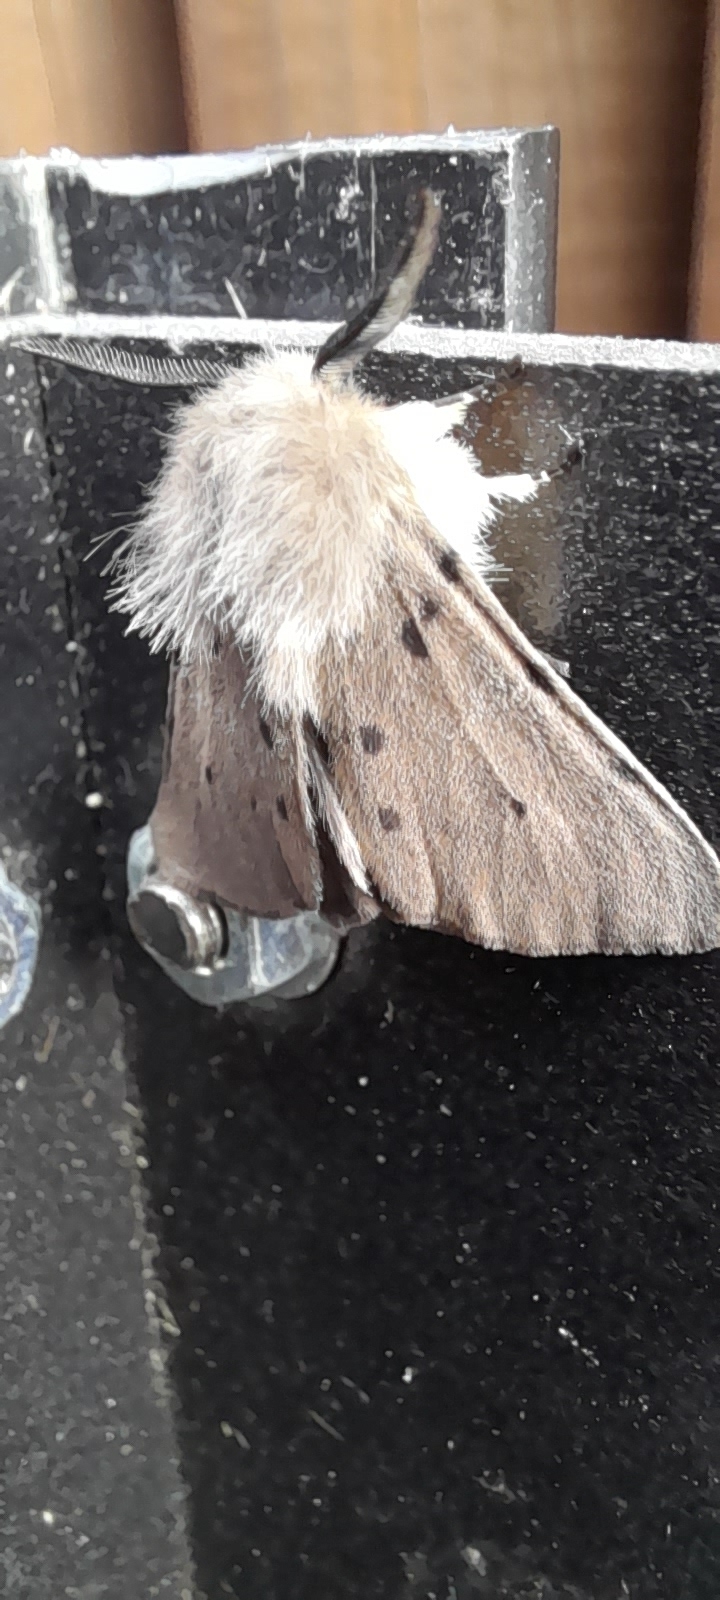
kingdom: Animalia
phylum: Arthropoda
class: Insecta
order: Lepidoptera
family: Erebidae
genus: Diaphora
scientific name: Diaphora mendica
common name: Muslin moth
